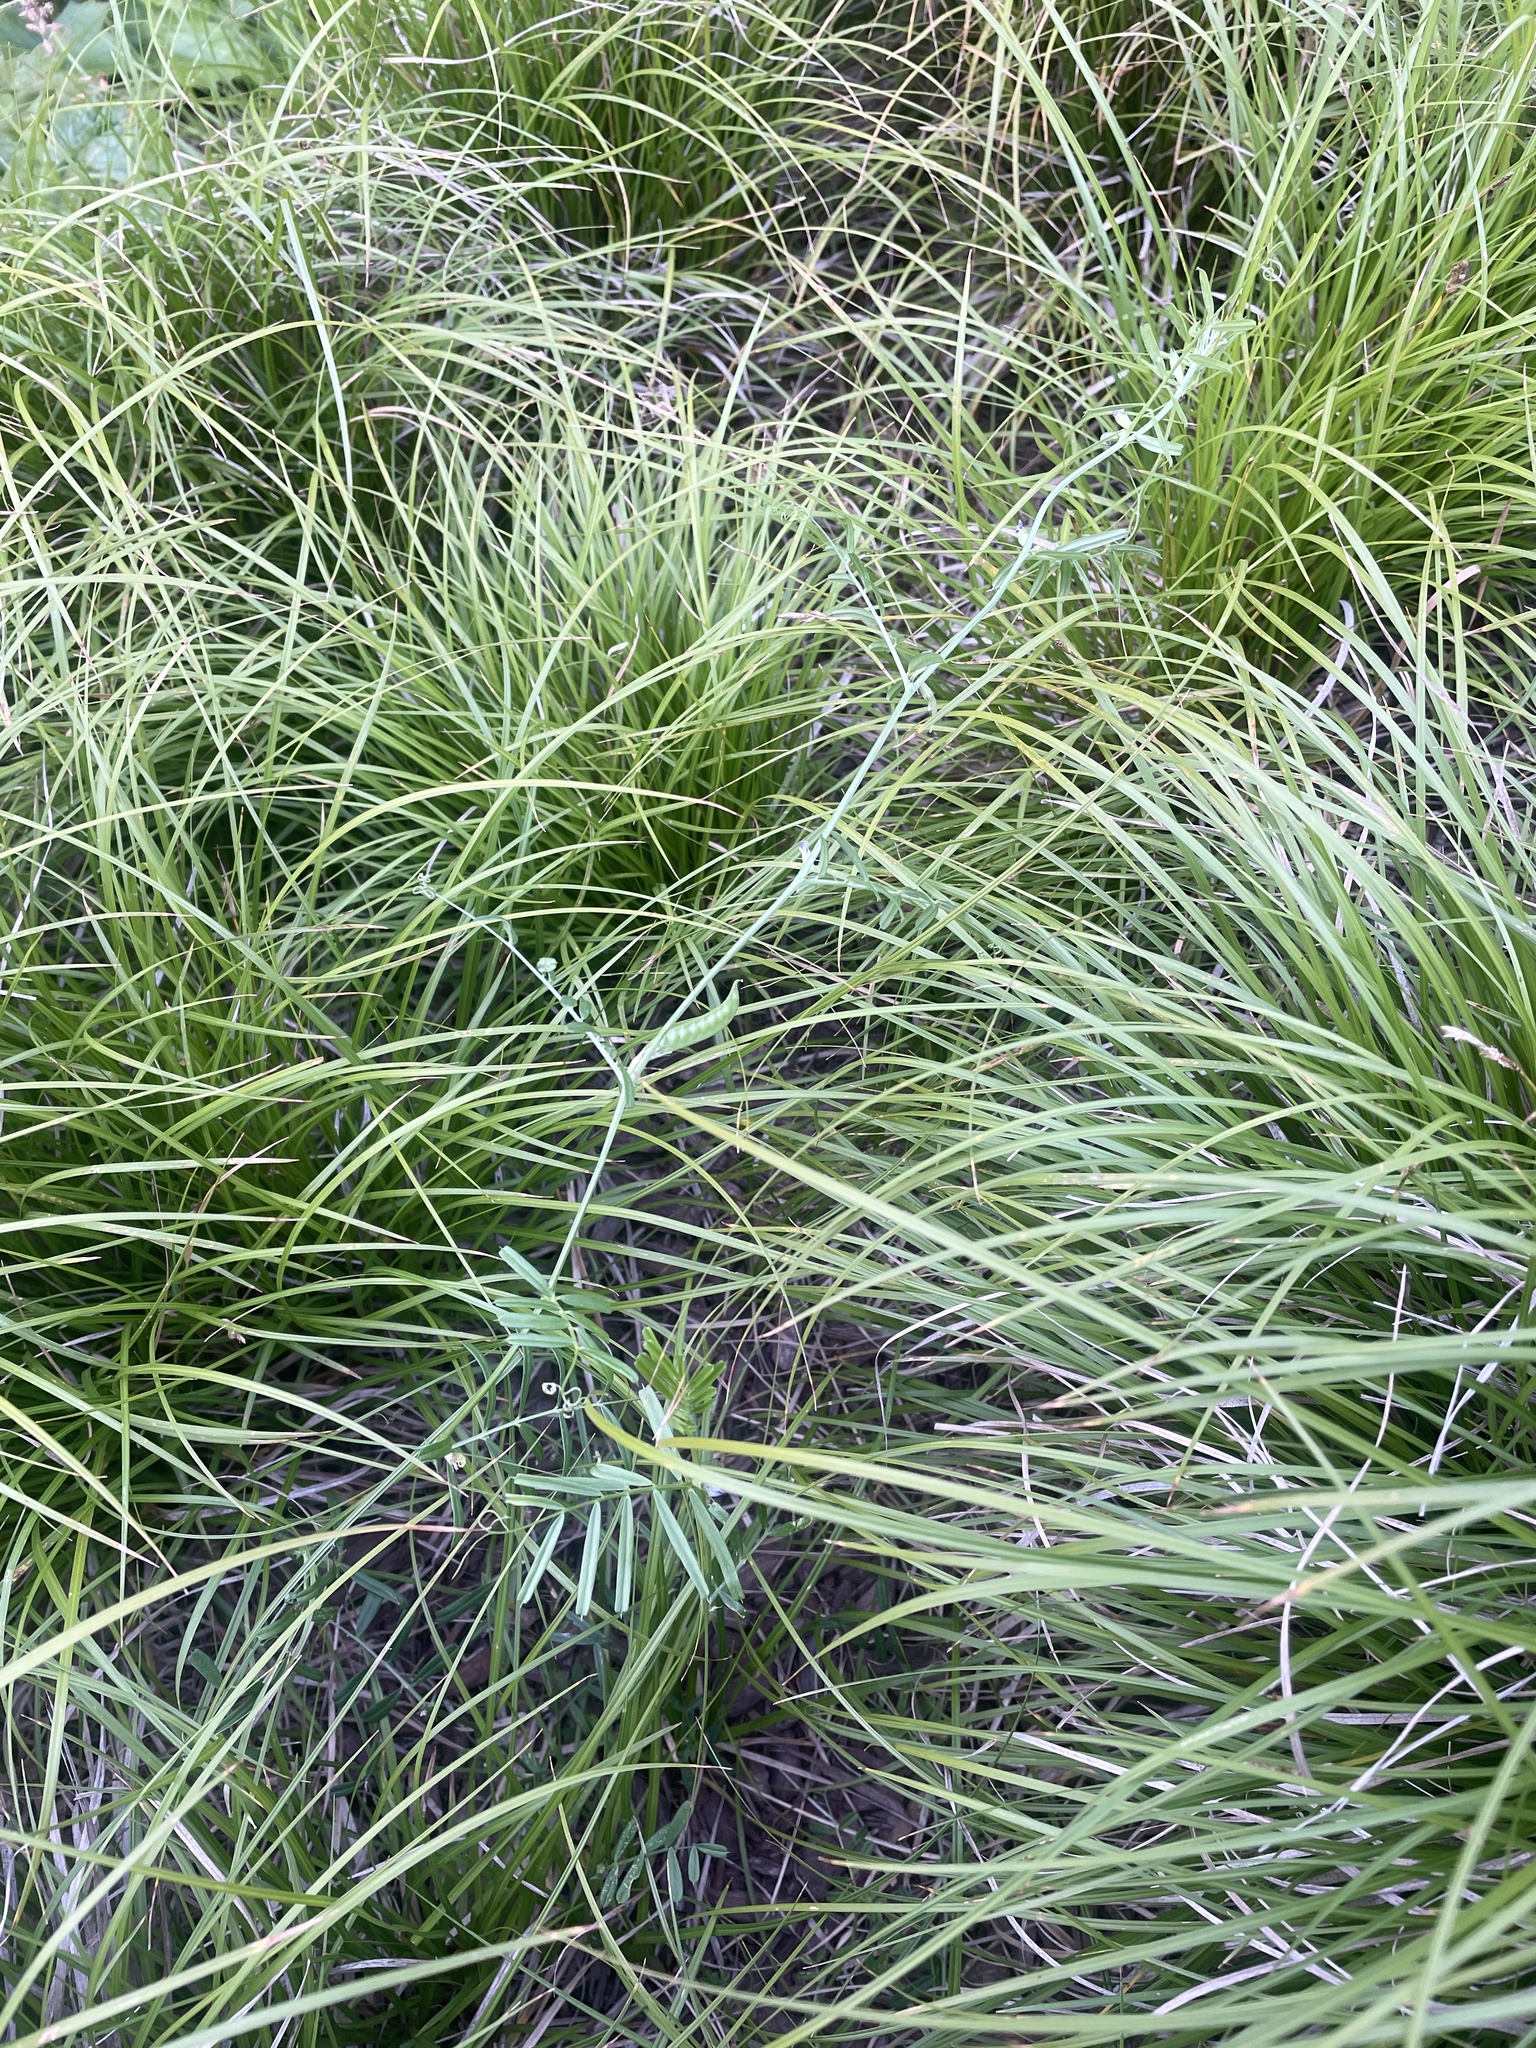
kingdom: Plantae
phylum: Tracheophyta
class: Magnoliopsida
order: Fabales
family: Fabaceae
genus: Vicia
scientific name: Vicia sativa
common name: Garden vetch
